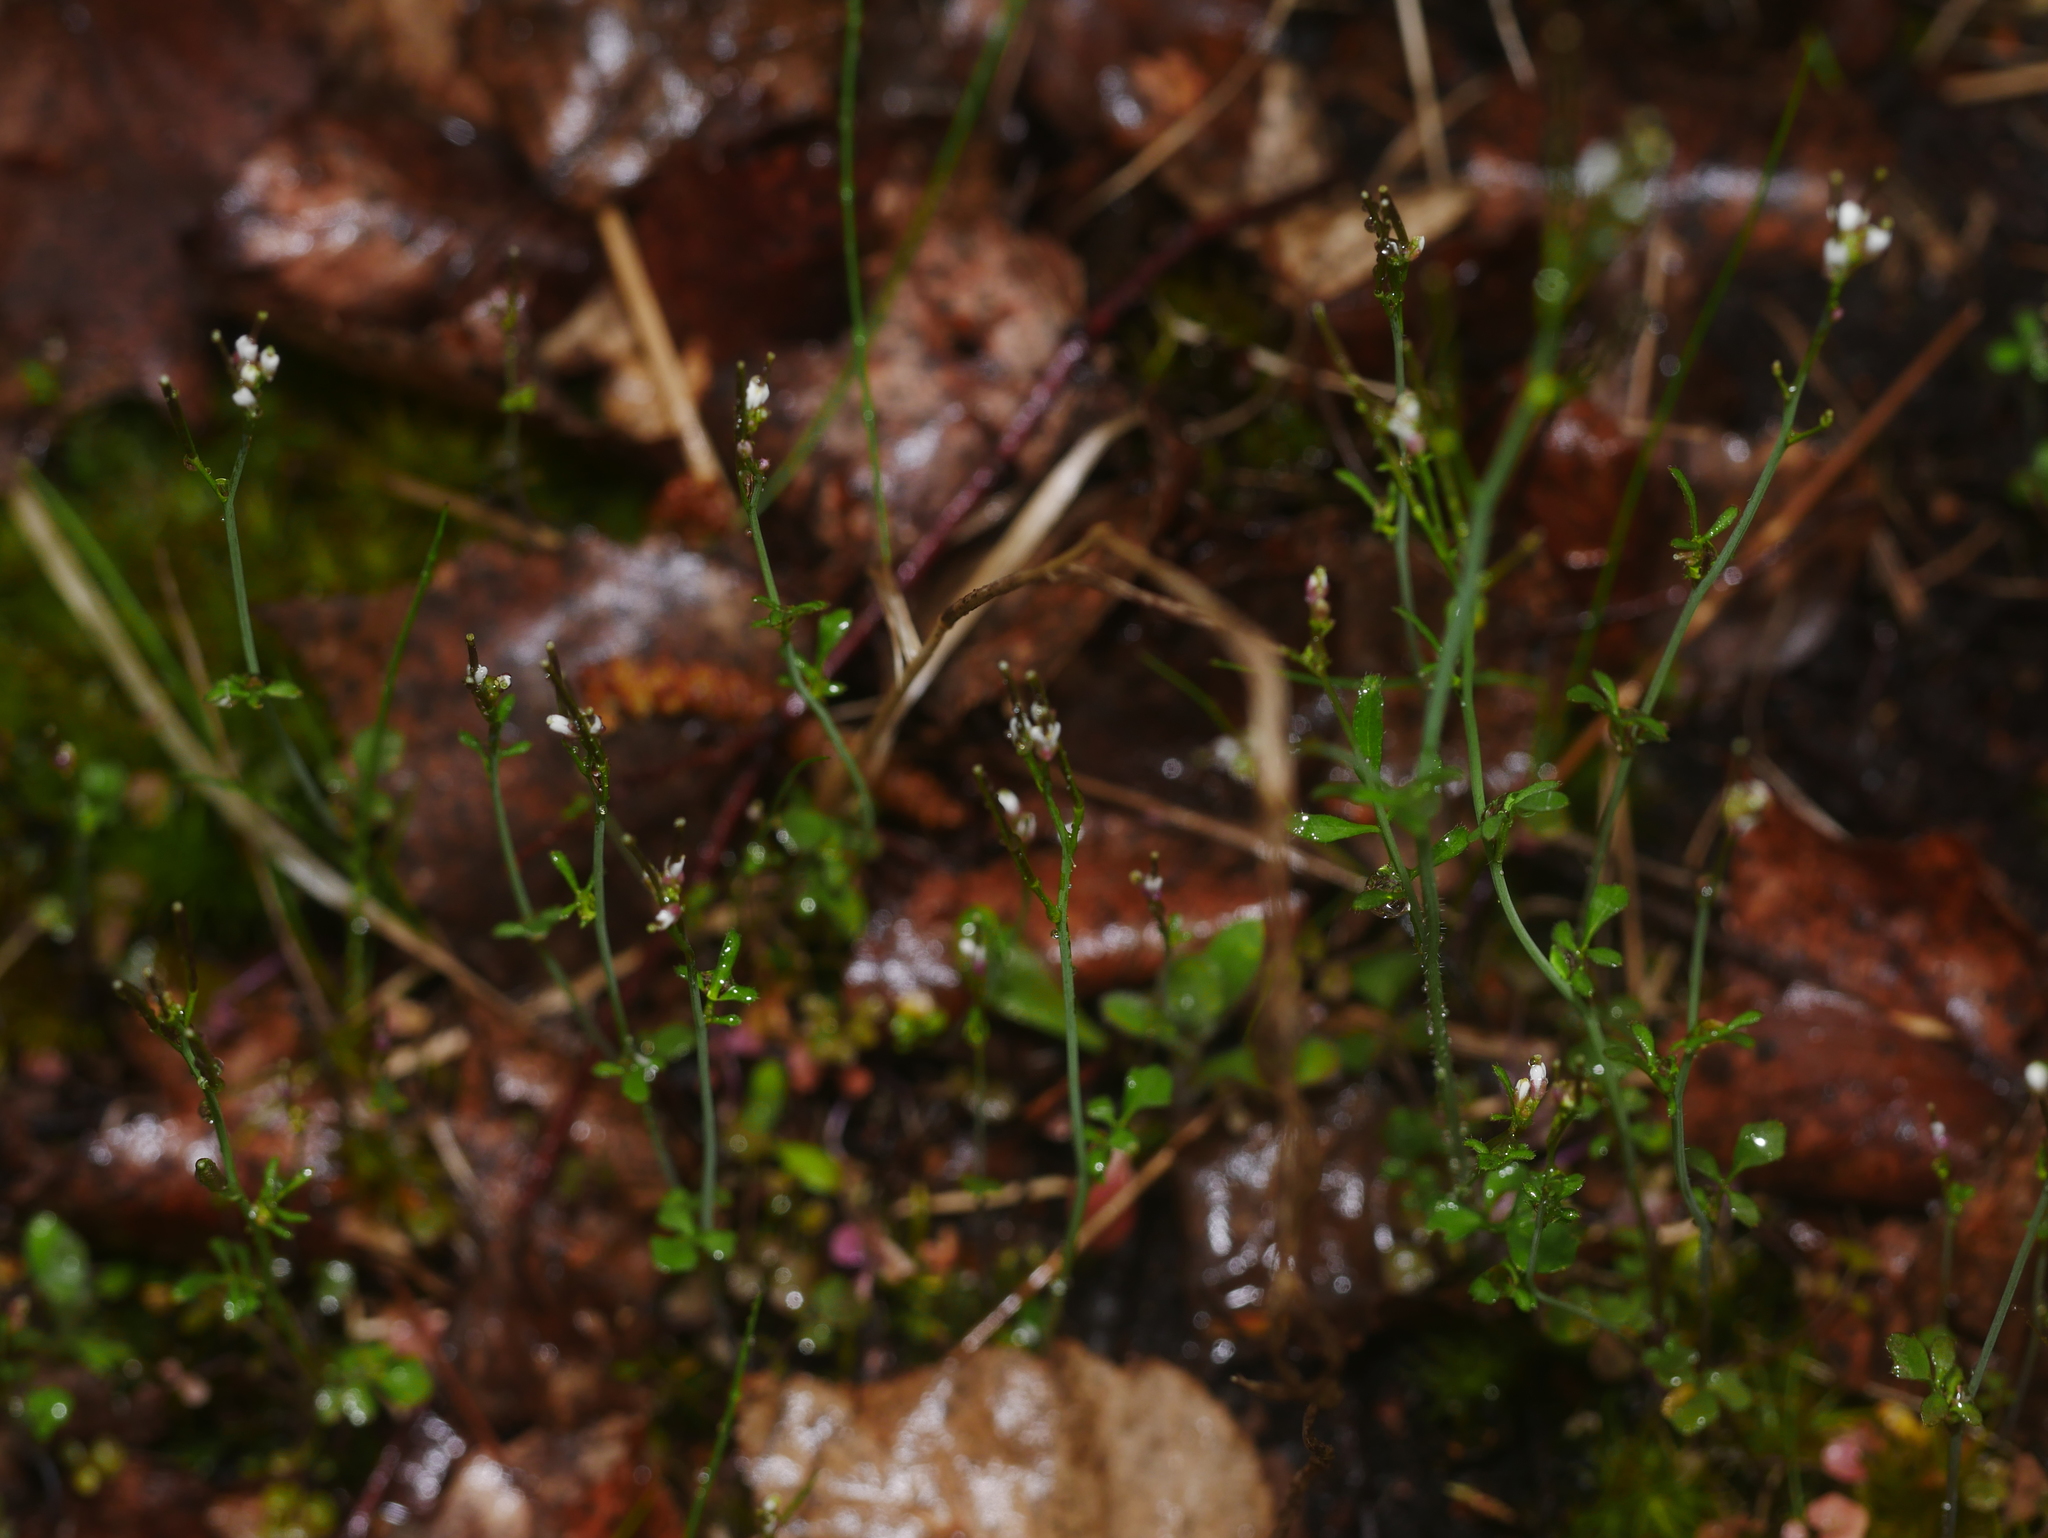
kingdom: Plantae
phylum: Tracheophyta
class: Magnoliopsida
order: Brassicales
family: Brassicaceae
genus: Cardamine
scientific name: Cardamine hirsuta
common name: Hairy bittercress
